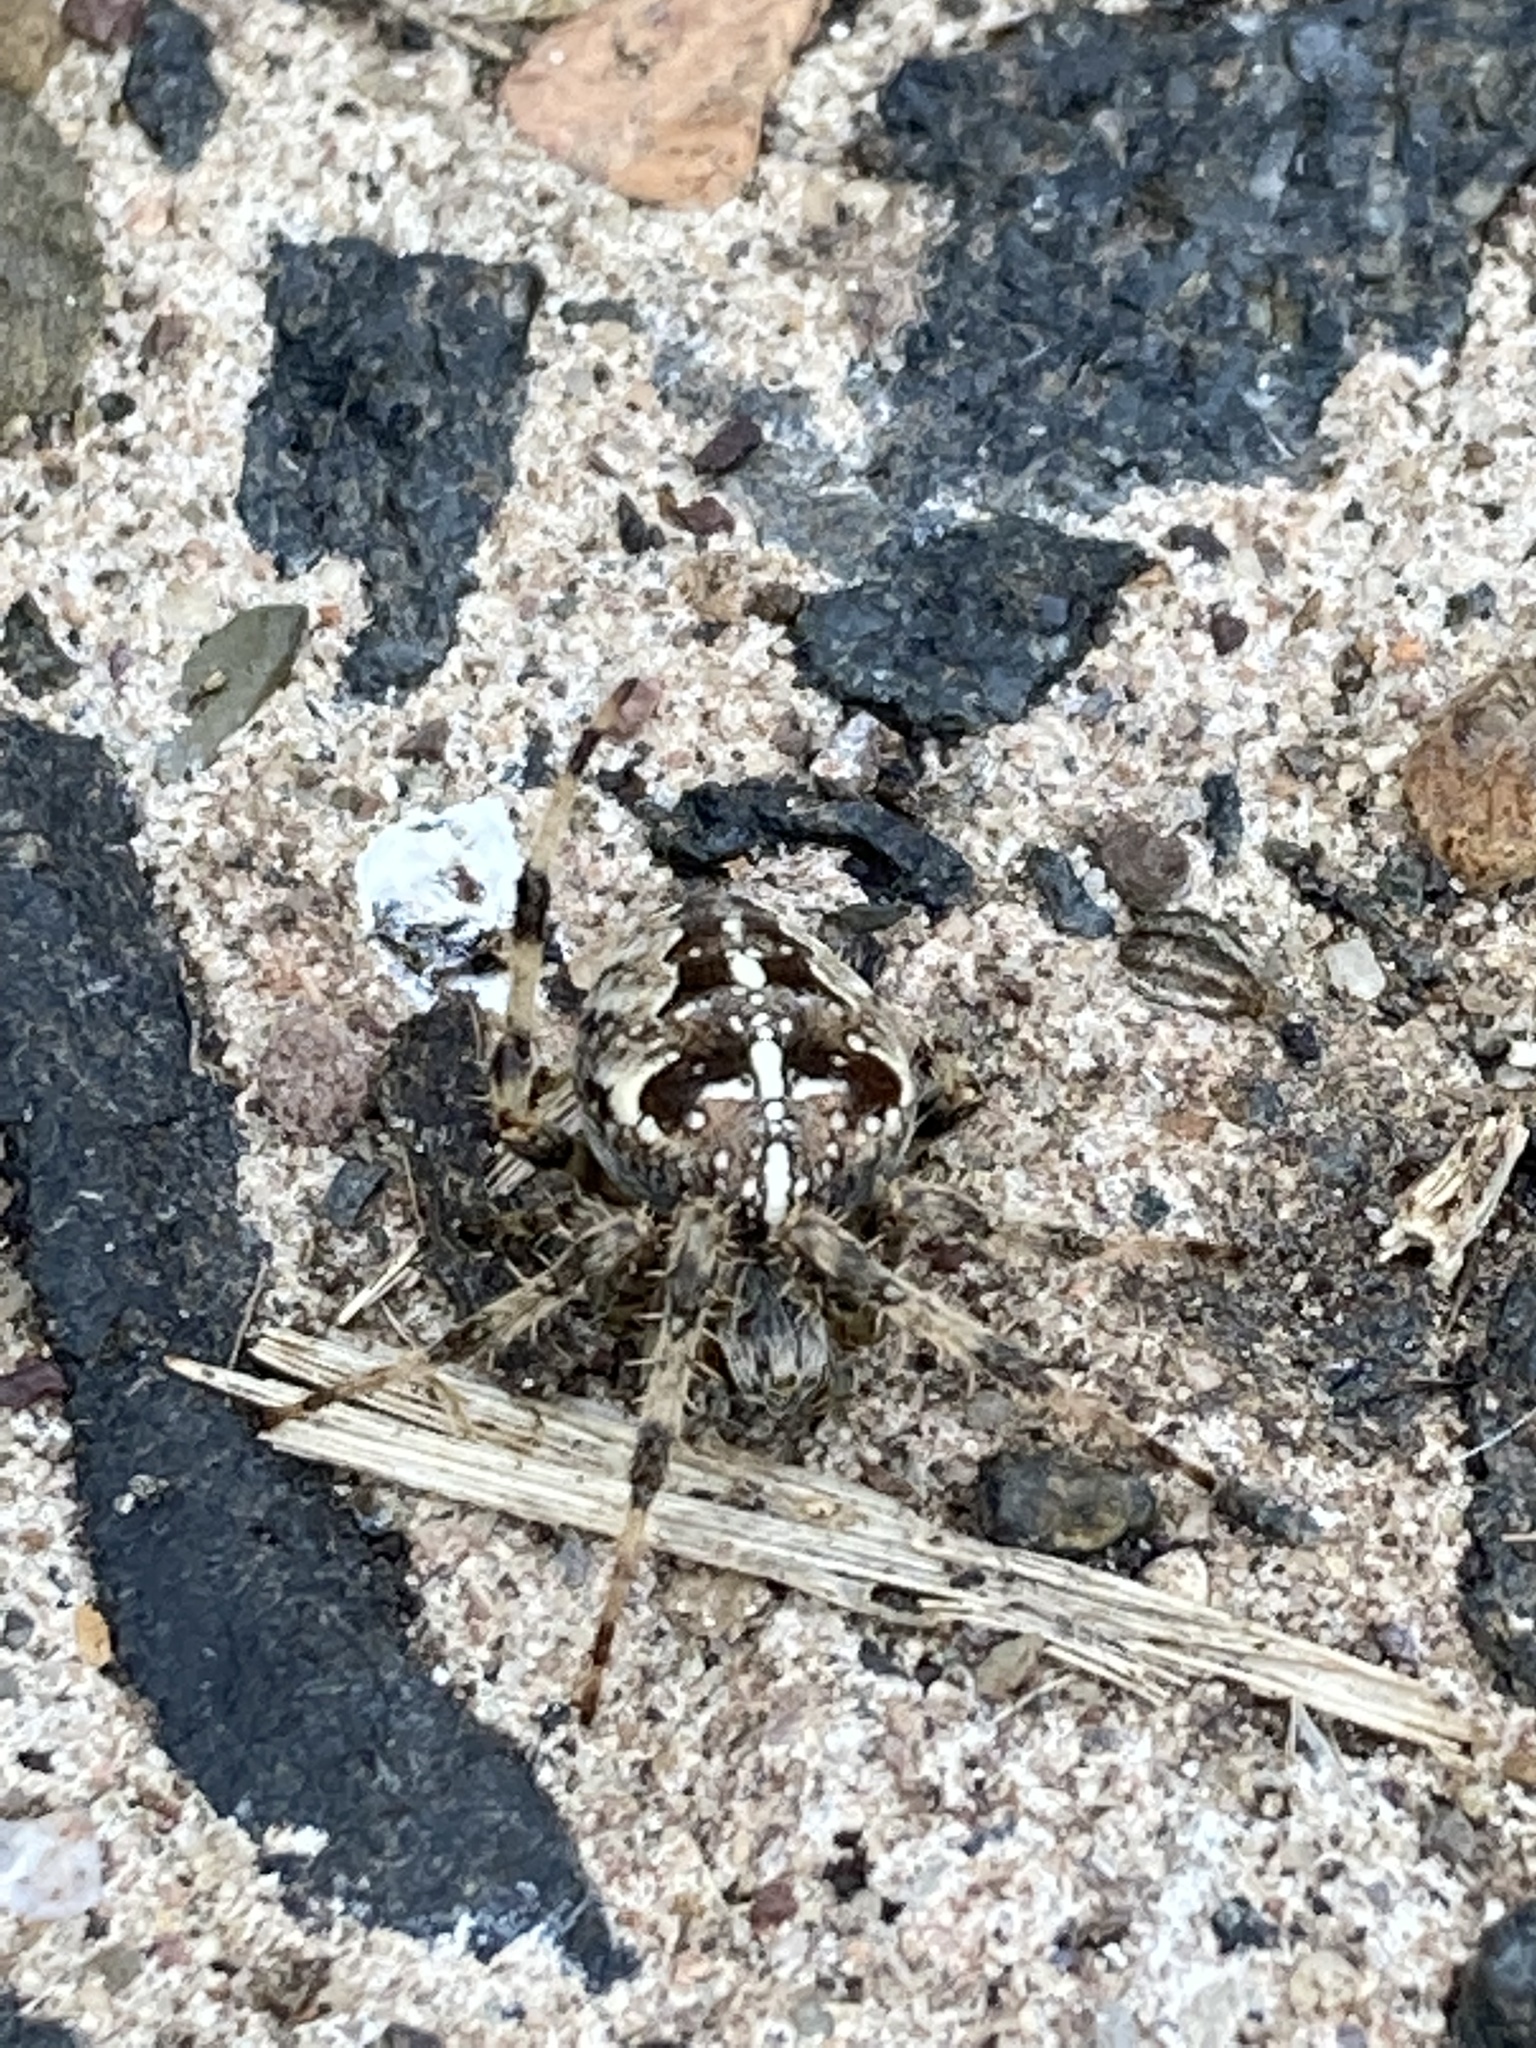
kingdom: Animalia
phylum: Arthropoda
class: Arachnida
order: Araneae
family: Araneidae
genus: Araneus
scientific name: Araneus diadematus
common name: Cross orbweaver
